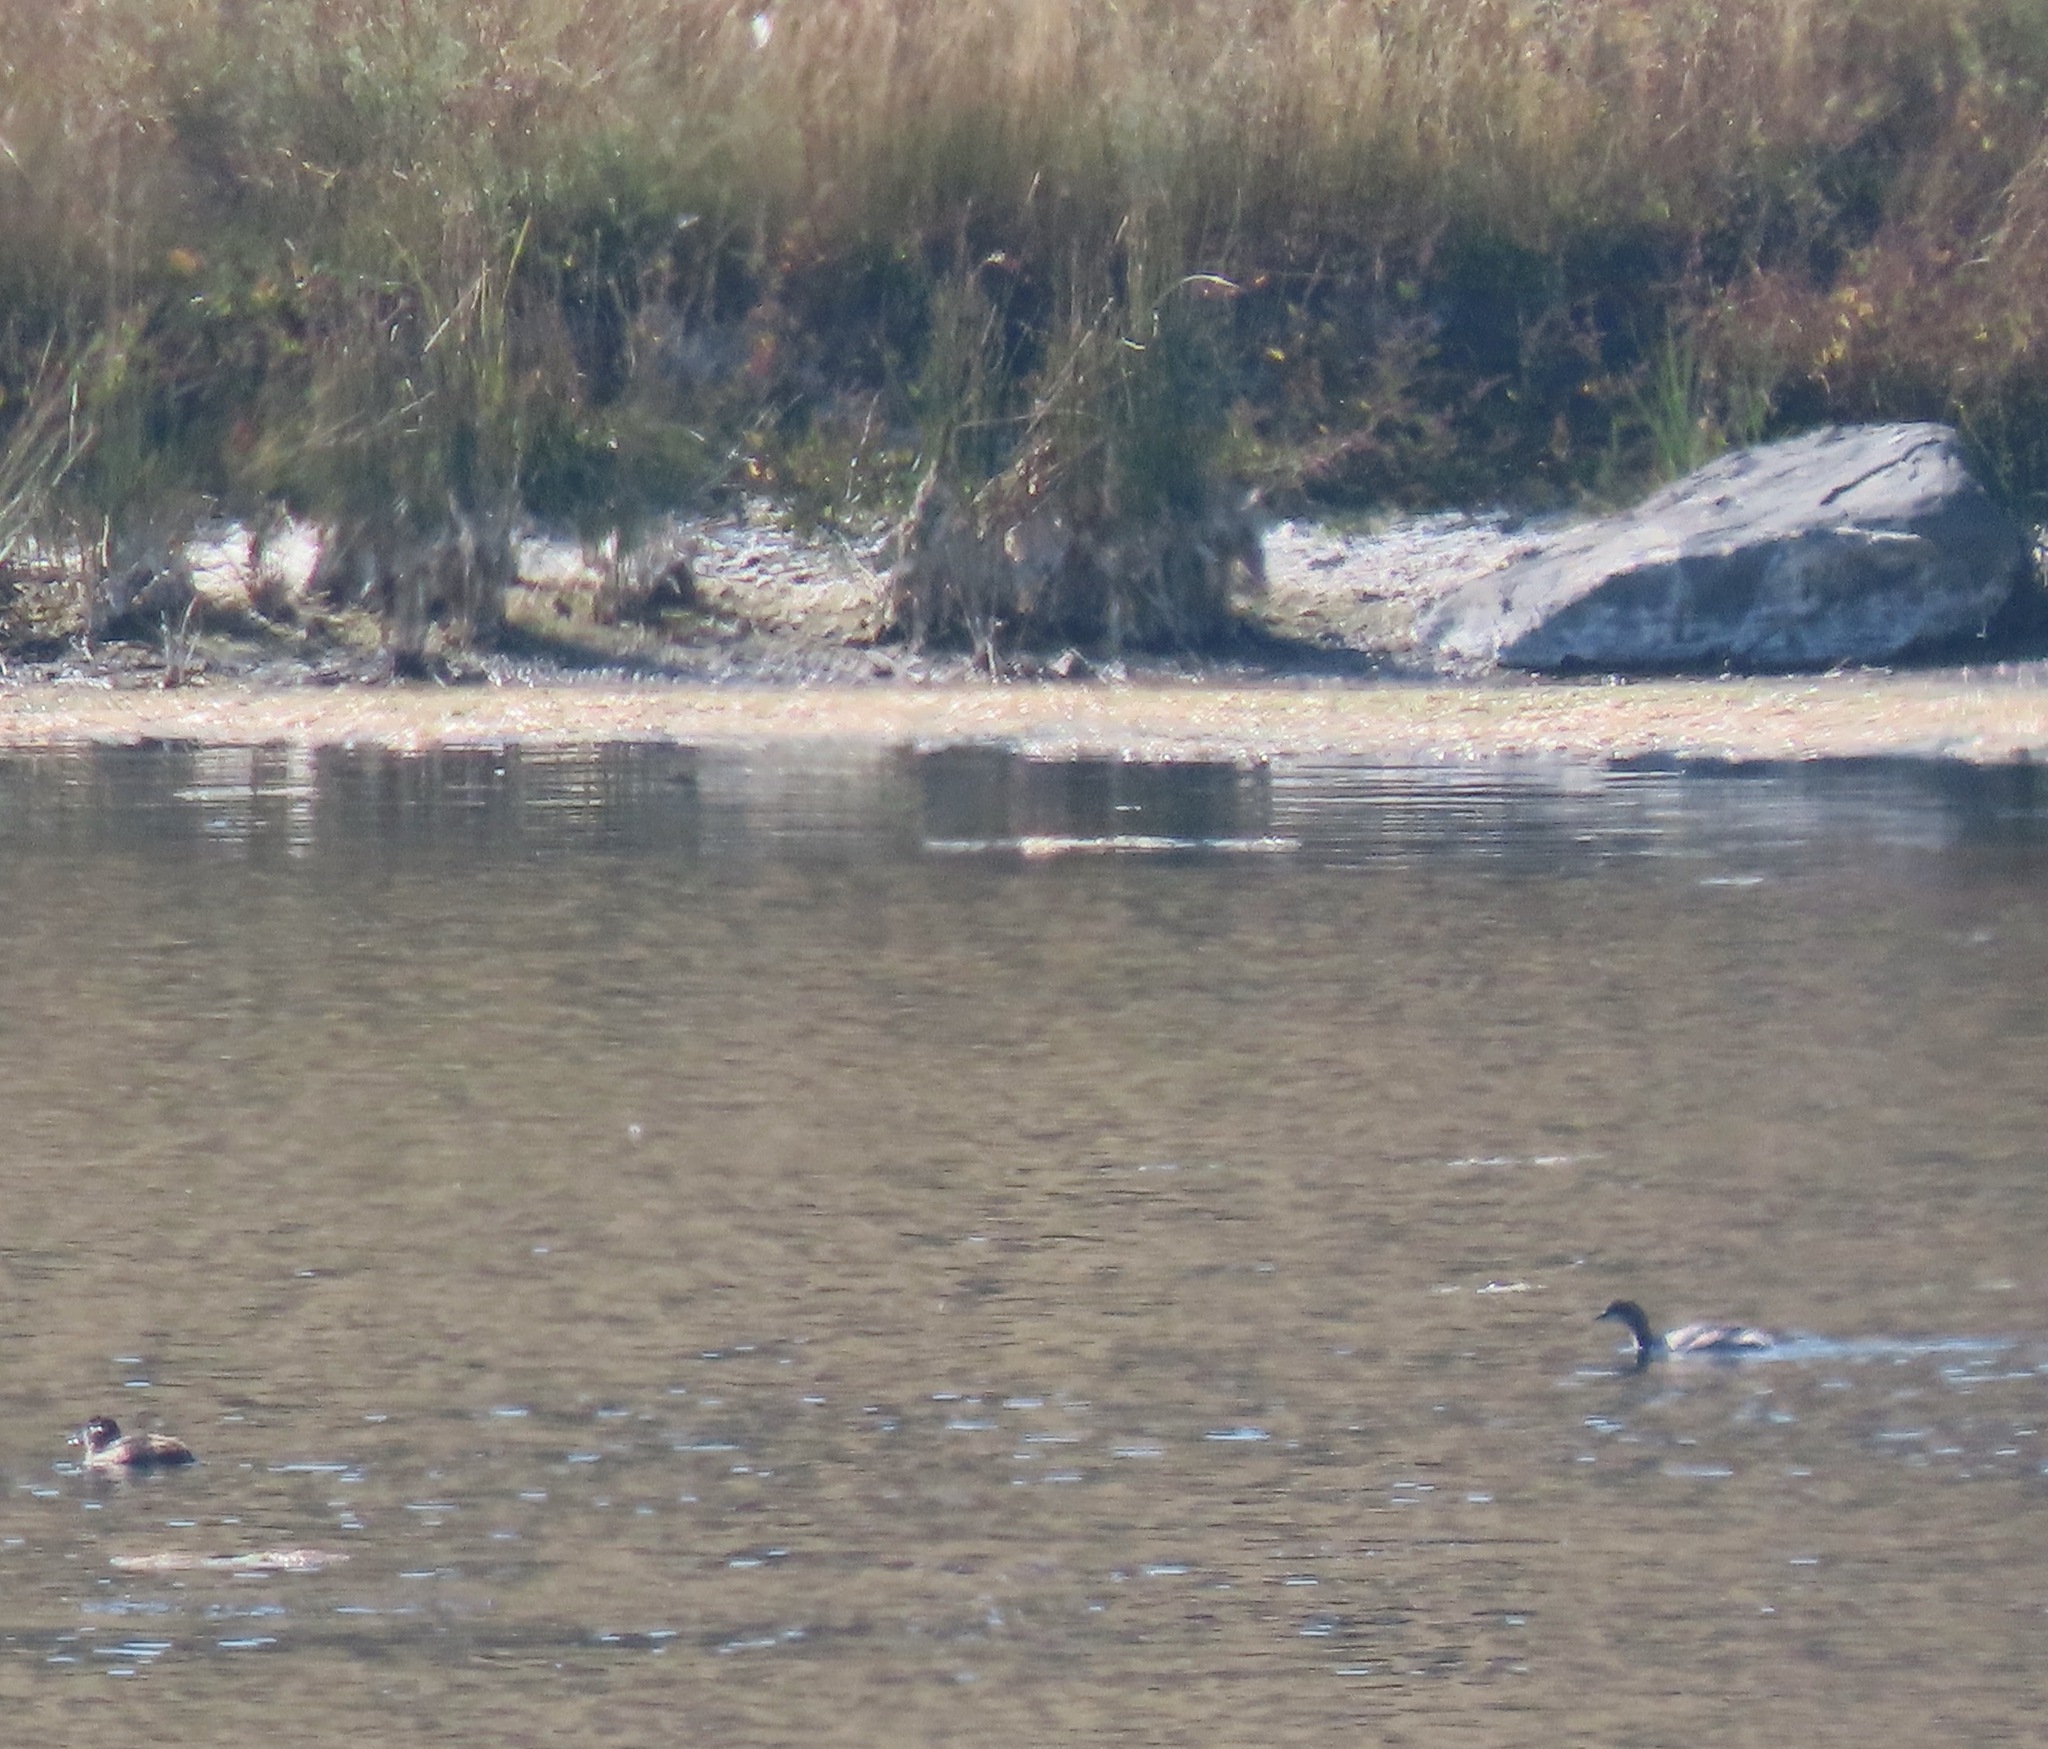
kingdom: Animalia
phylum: Chordata
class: Aves
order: Anseriformes
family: Anatidae
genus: Bucephala
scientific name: Bucephala albeola
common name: Bufflehead
